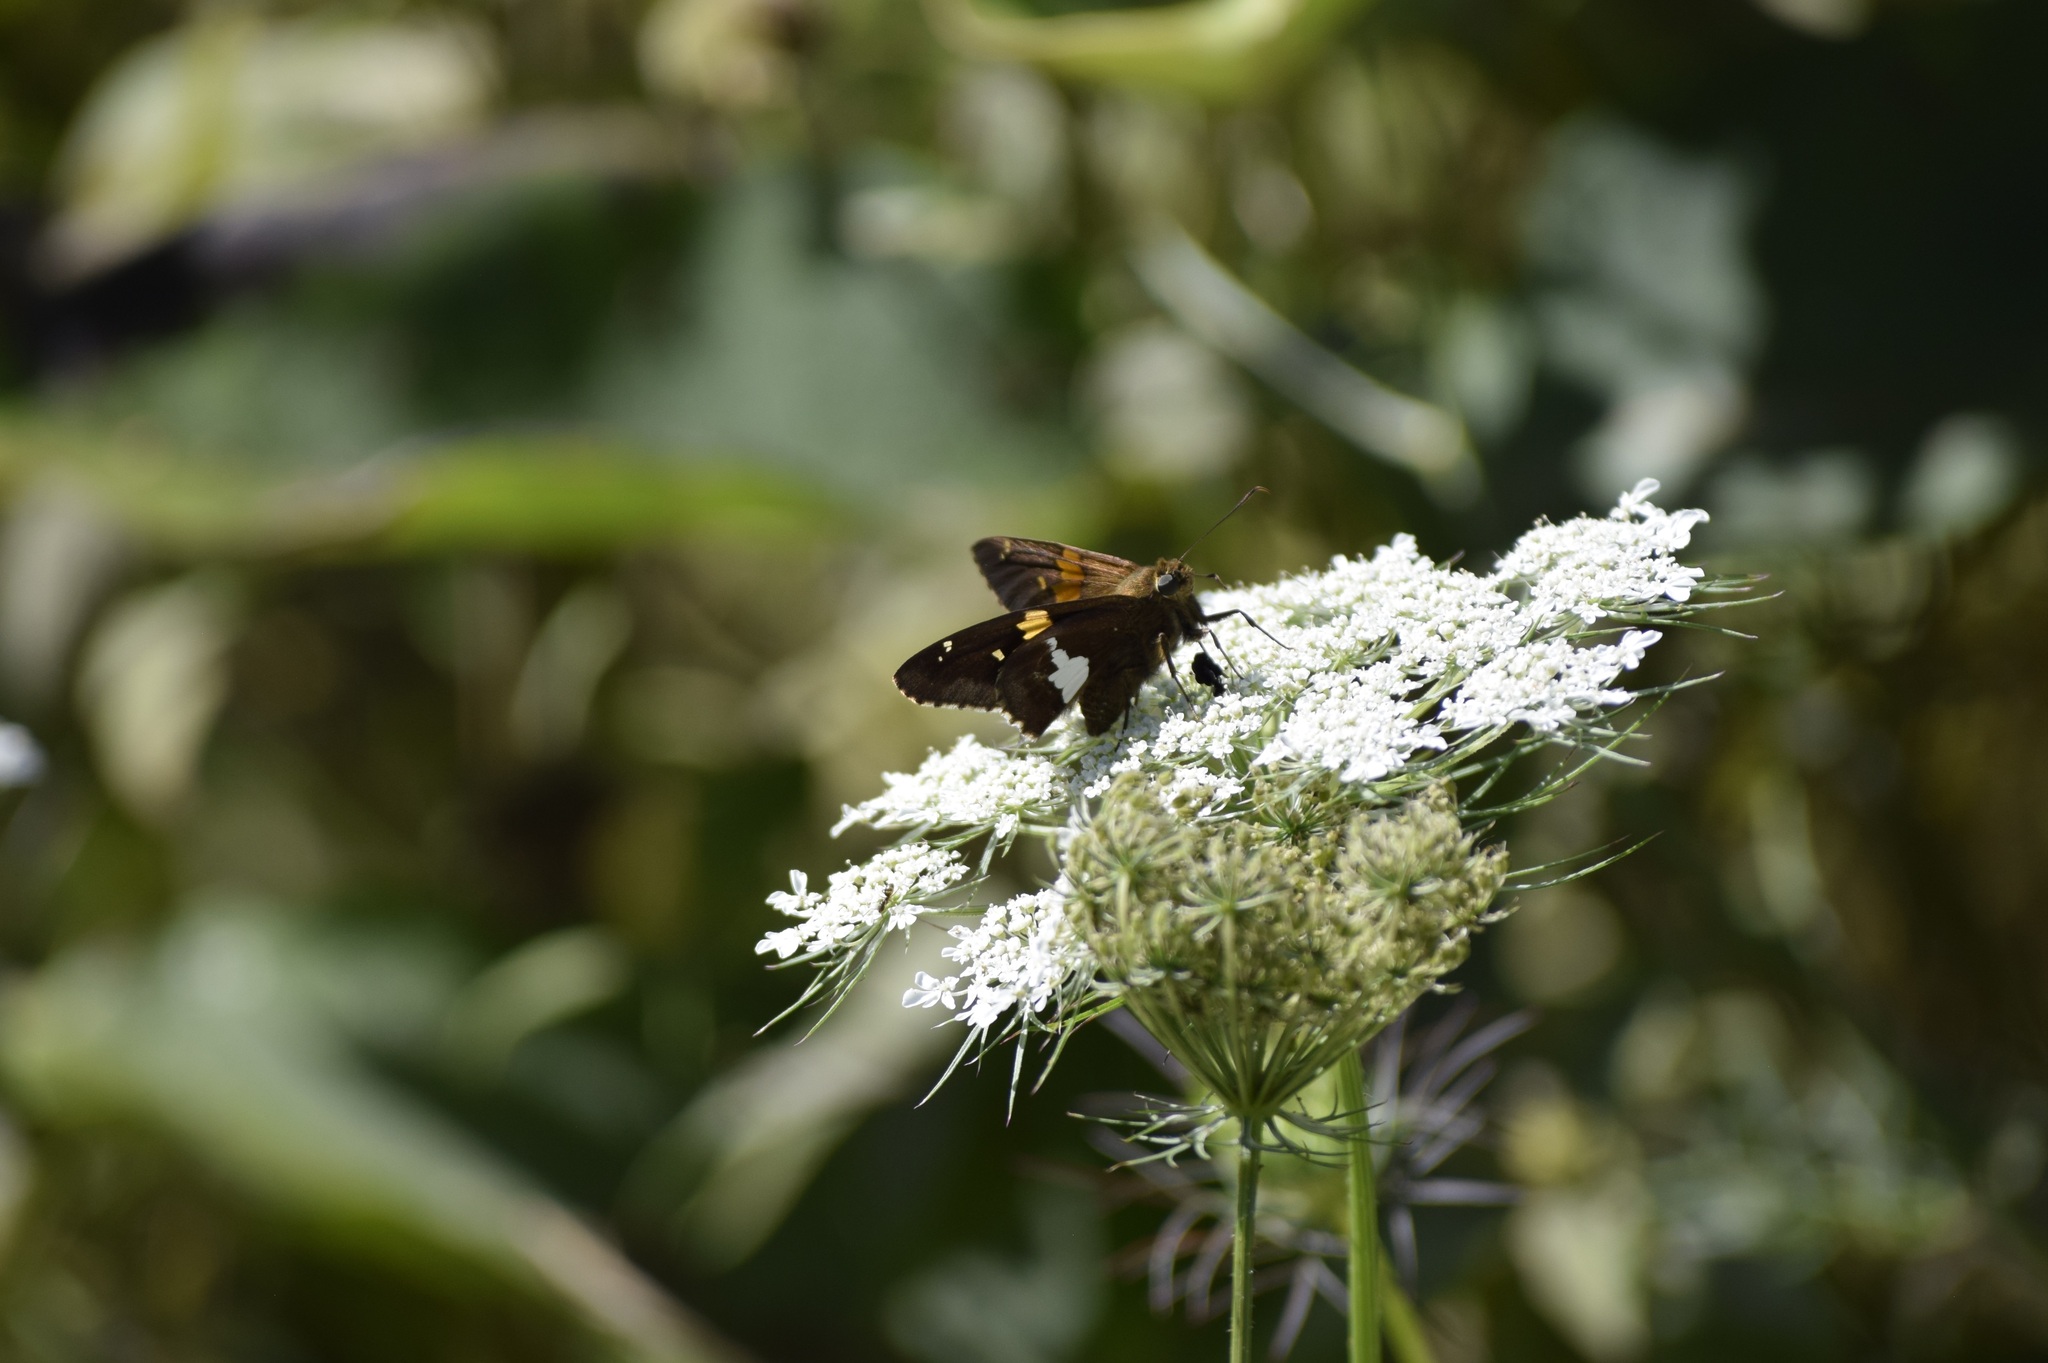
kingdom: Animalia
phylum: Arthropoda
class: Insecta
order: Lepidoptera
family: Hesperiidae
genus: Epargyreus
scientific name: Epargyreus clarus
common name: Silver-spotted skipper
